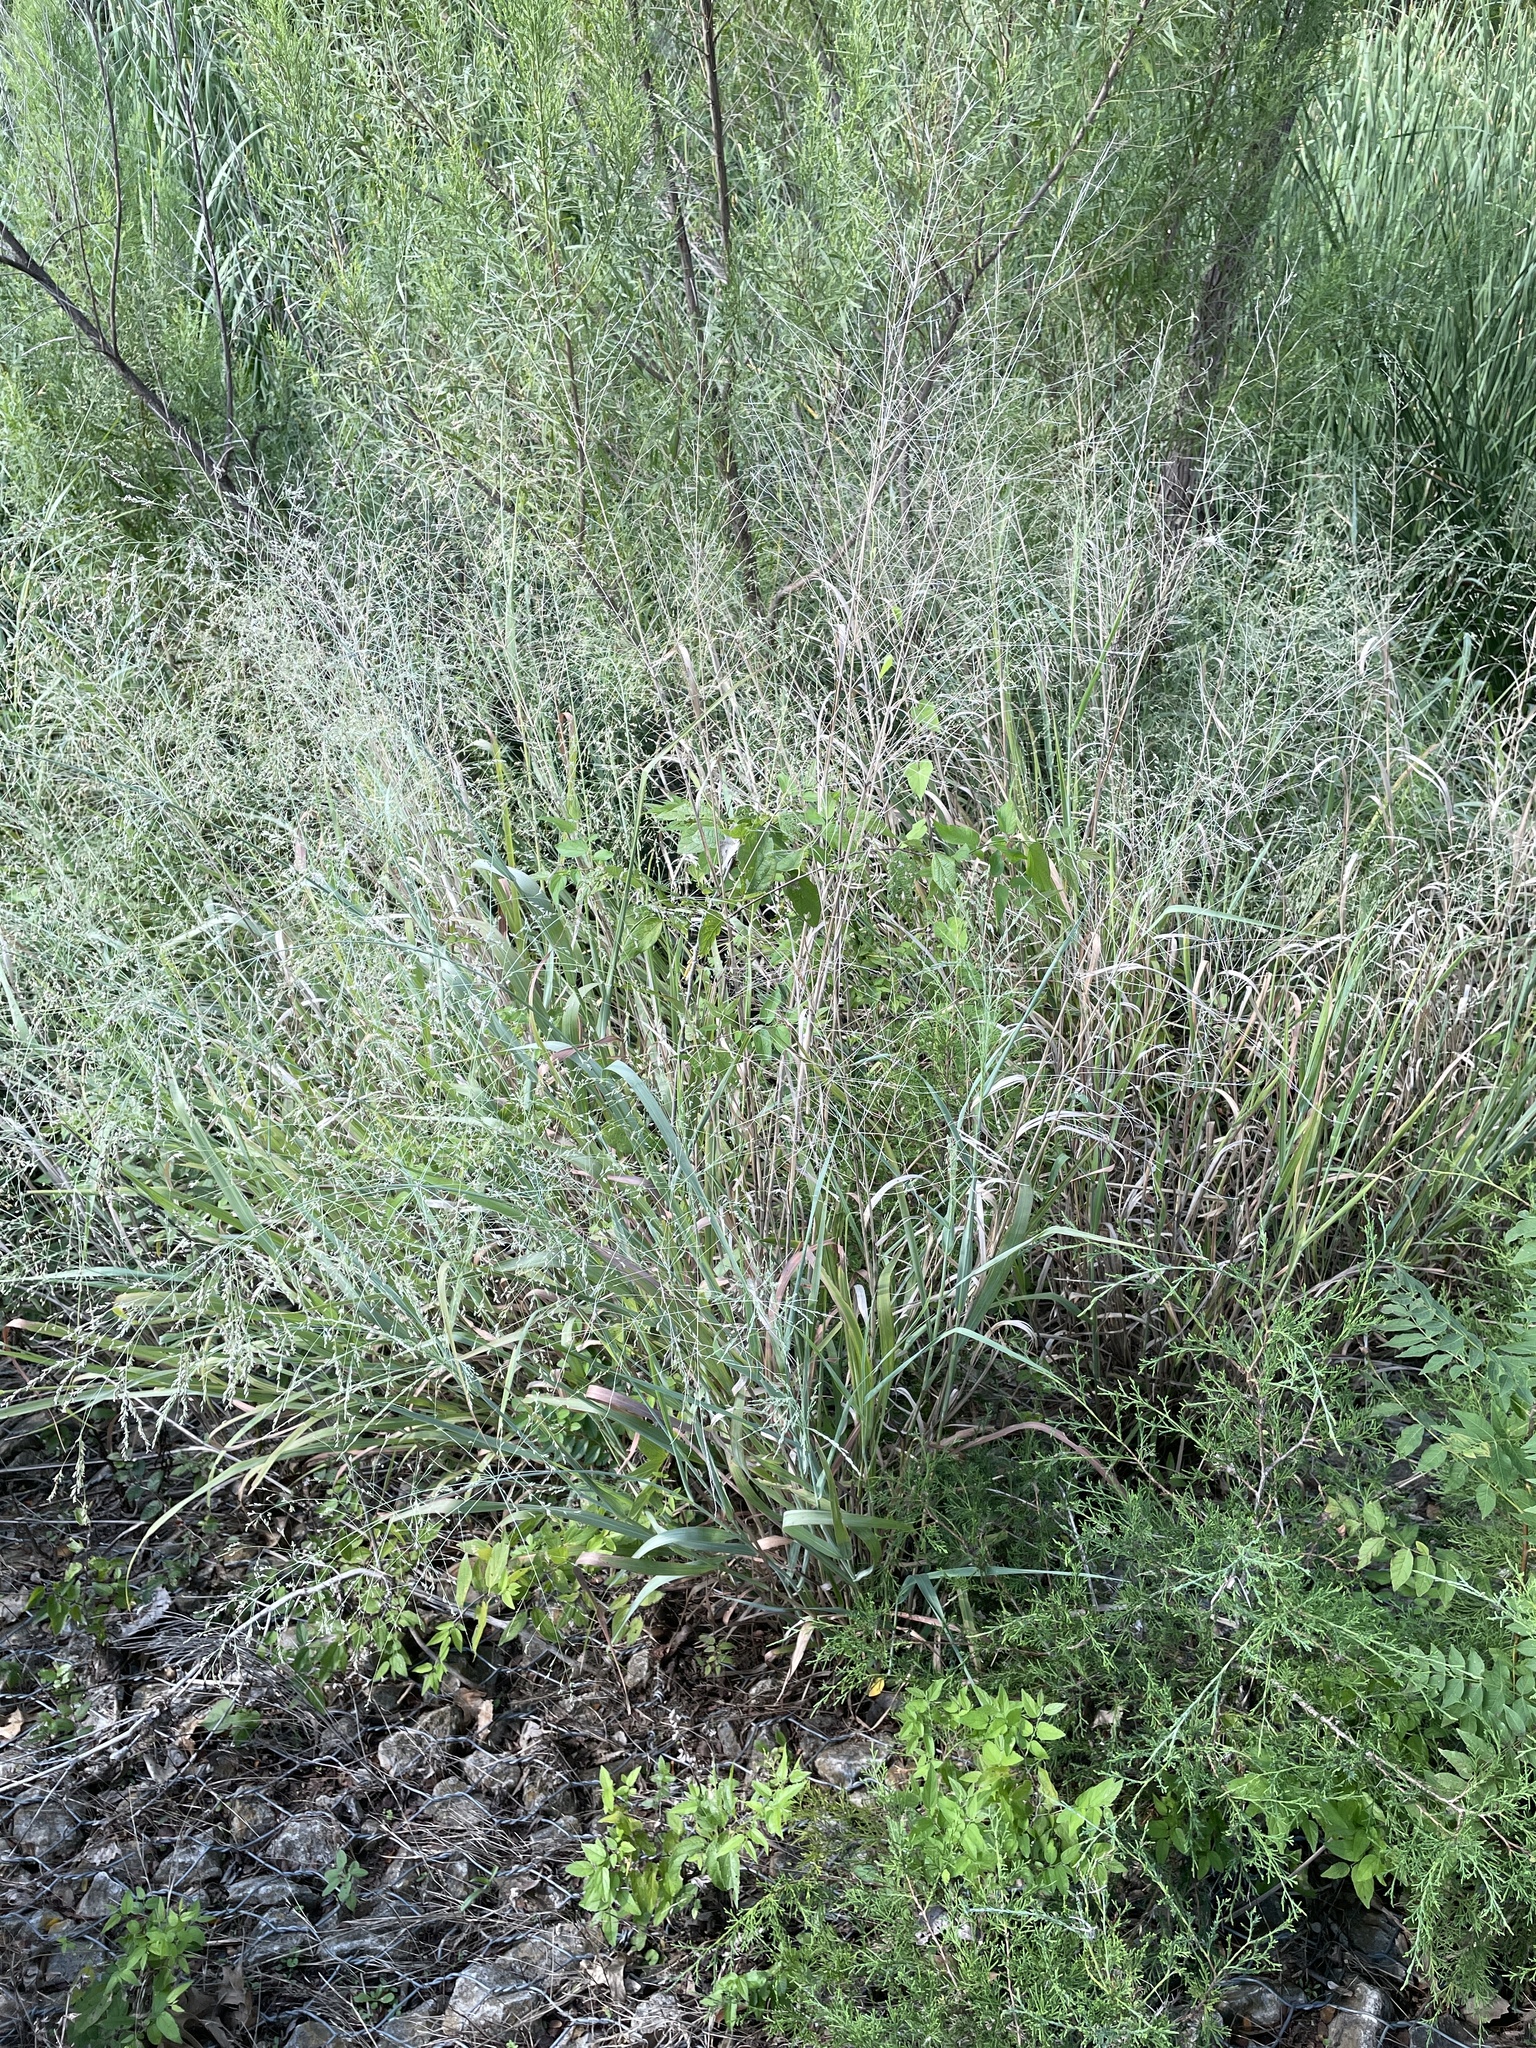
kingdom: Plantae
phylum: Tracheophyta
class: Liliopsida
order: Poales
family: Poaceae
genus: Panicum
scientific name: Panicum virgatum
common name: Switchgrass
